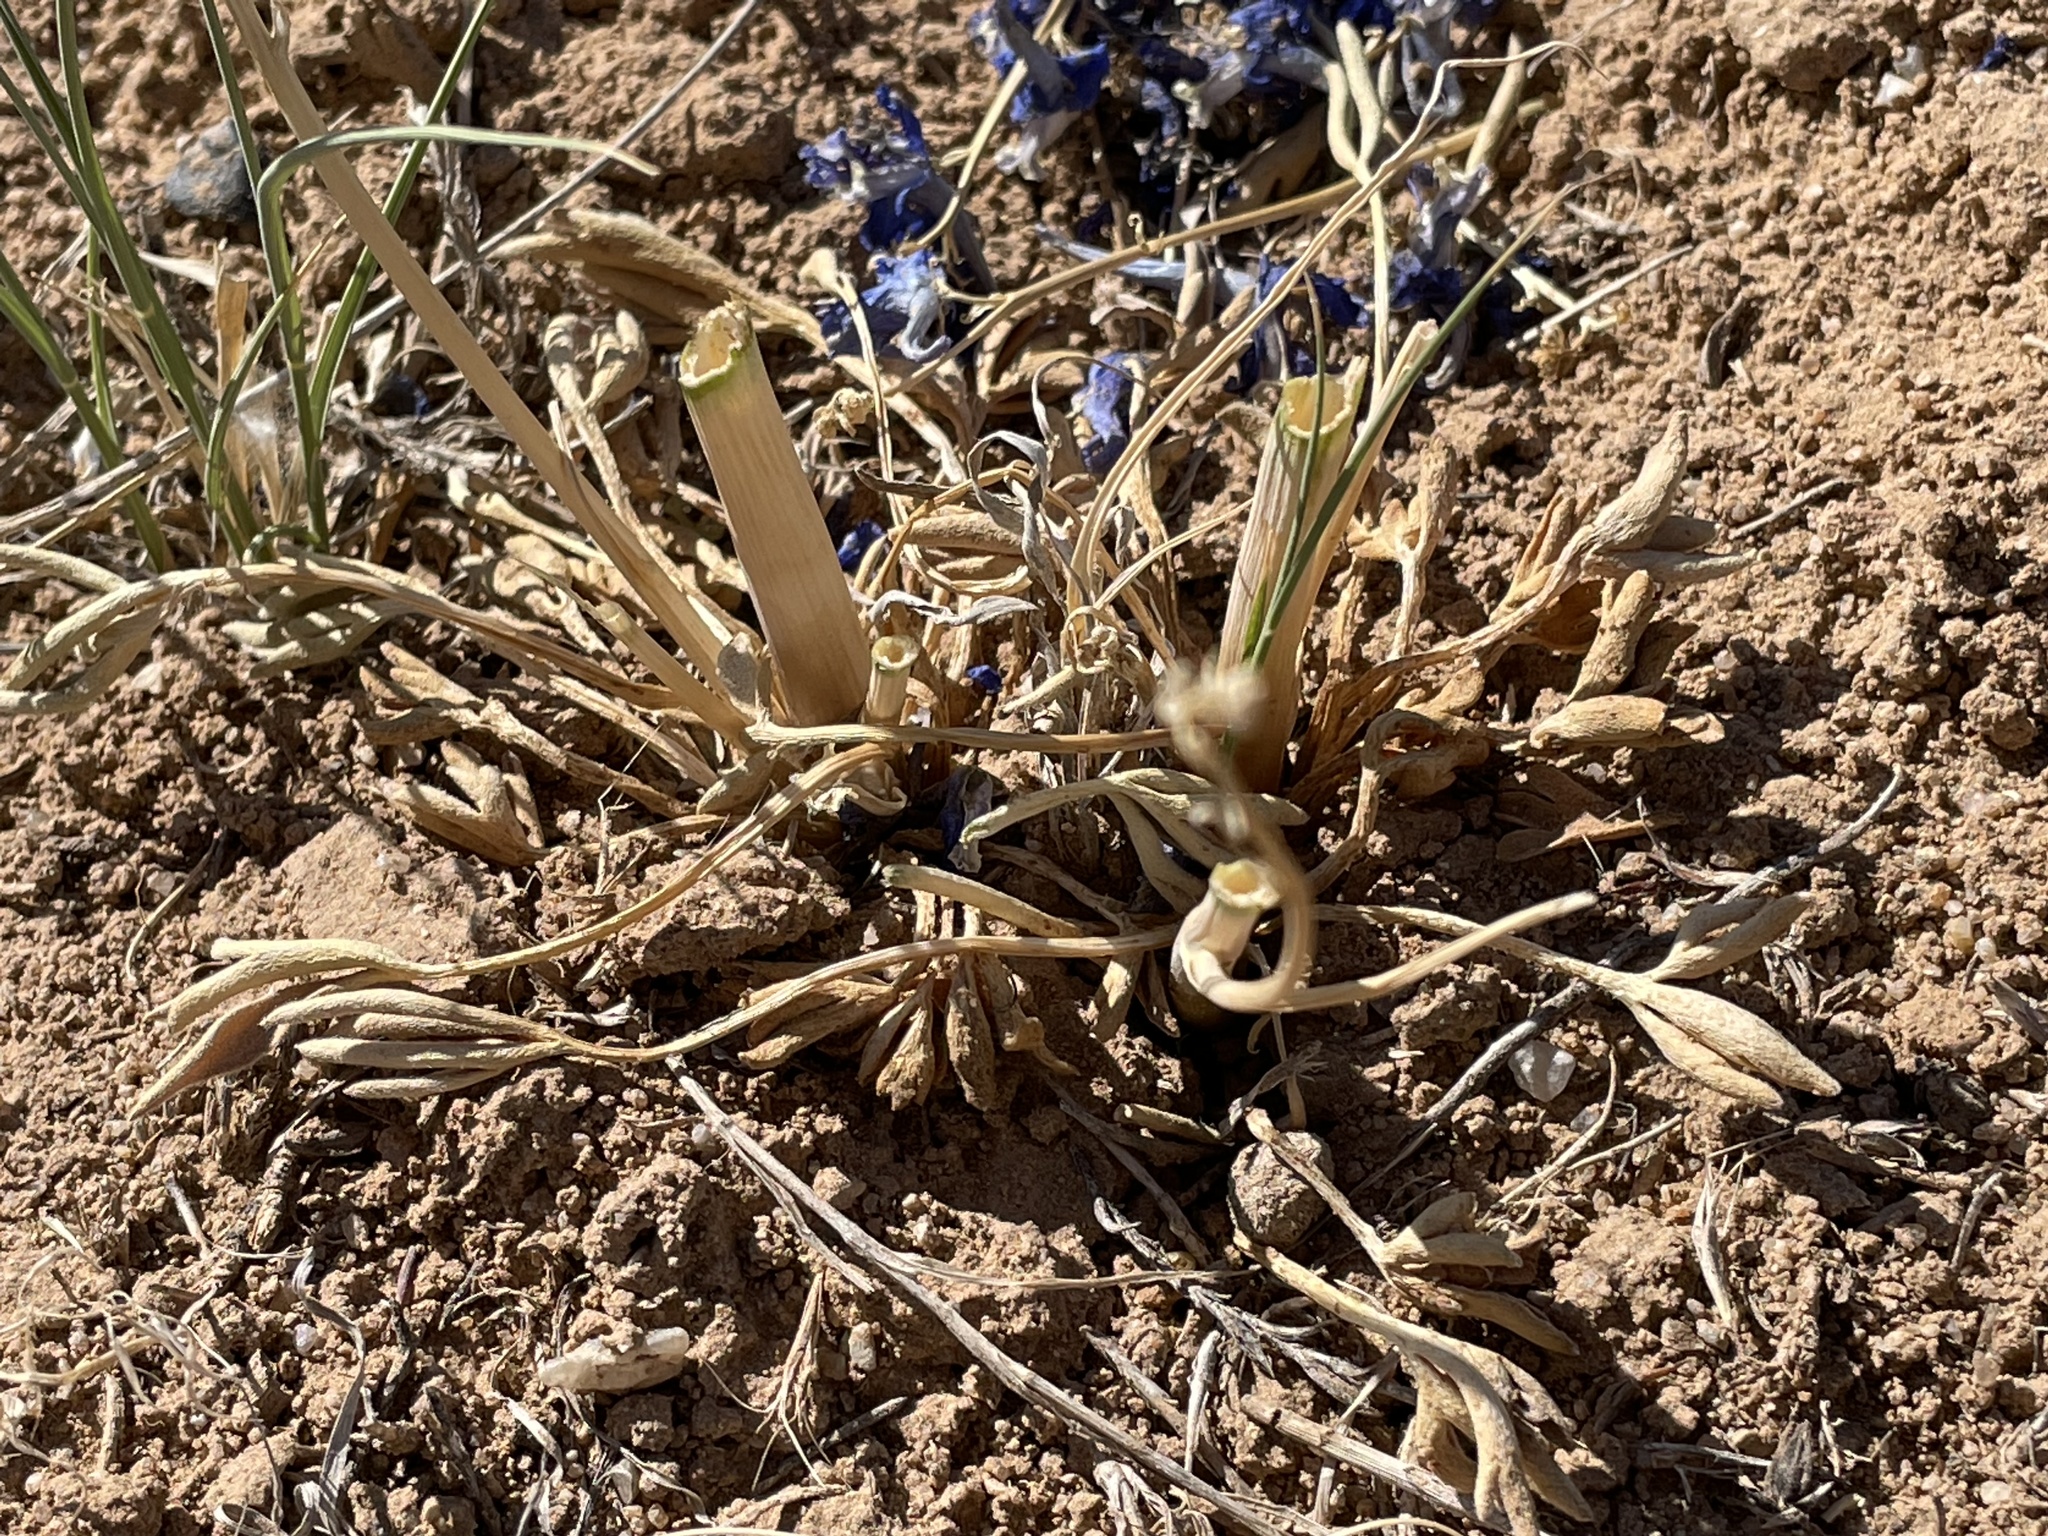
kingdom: Plantae
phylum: Tracheophyta
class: Magnoliopsida
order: Ranunculales
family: Ranunculaceae
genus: Delphinium
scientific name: Delphinium scaposum
